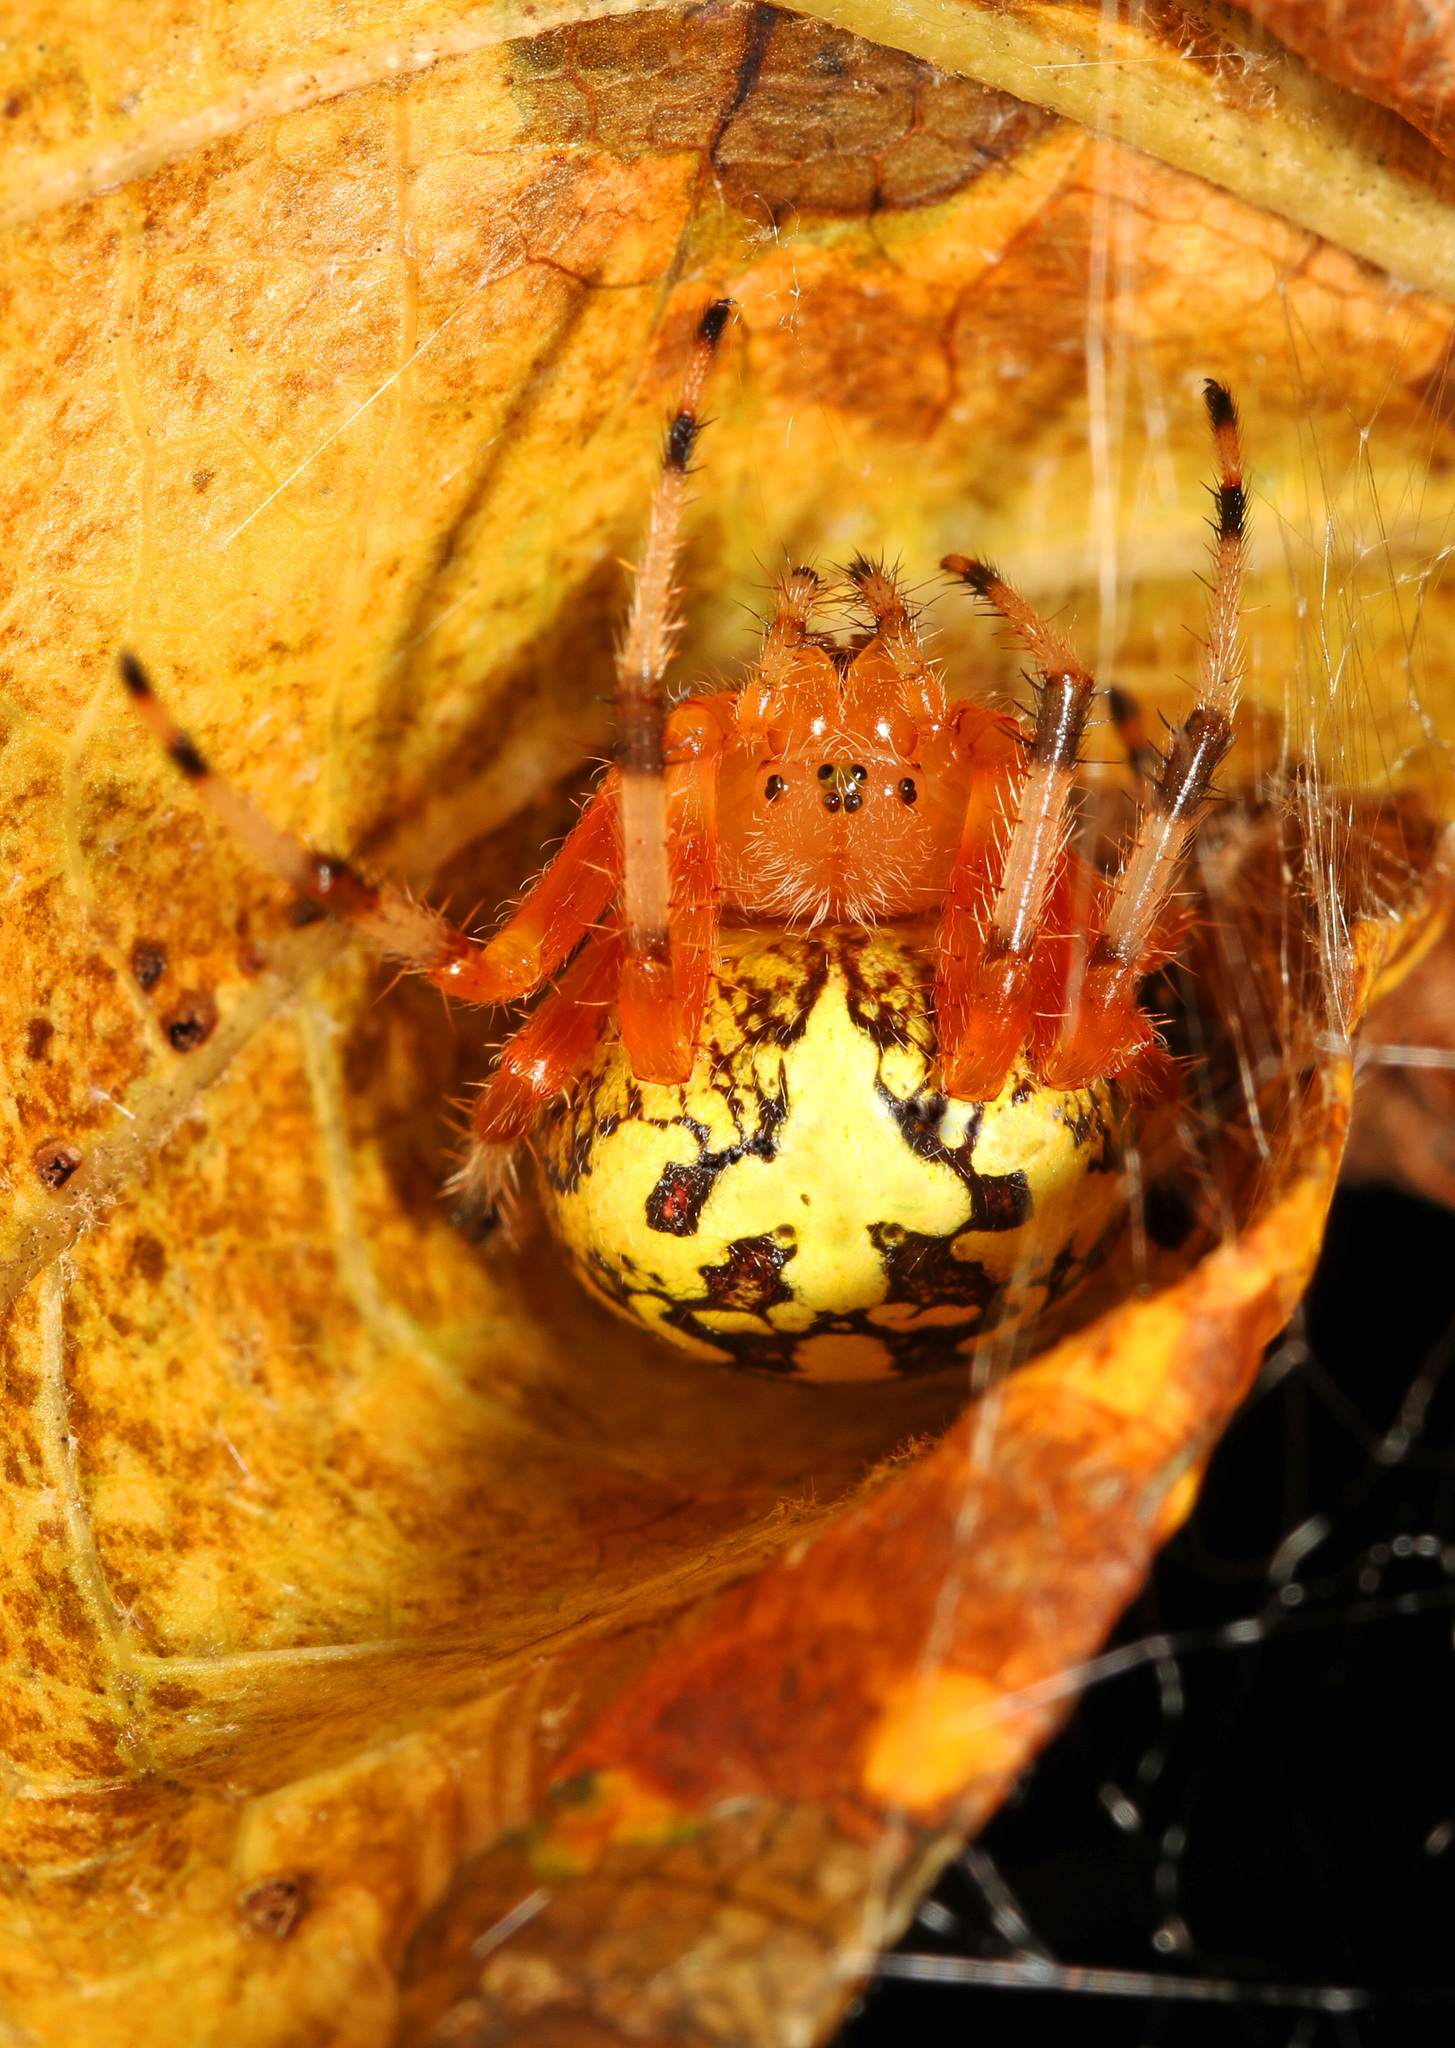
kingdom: Animalia
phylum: Arthropoda
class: Arachnida
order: Araneae
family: Araneidae
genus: Araneus
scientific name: Araneus marmoreus
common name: Marbled orbweaver
